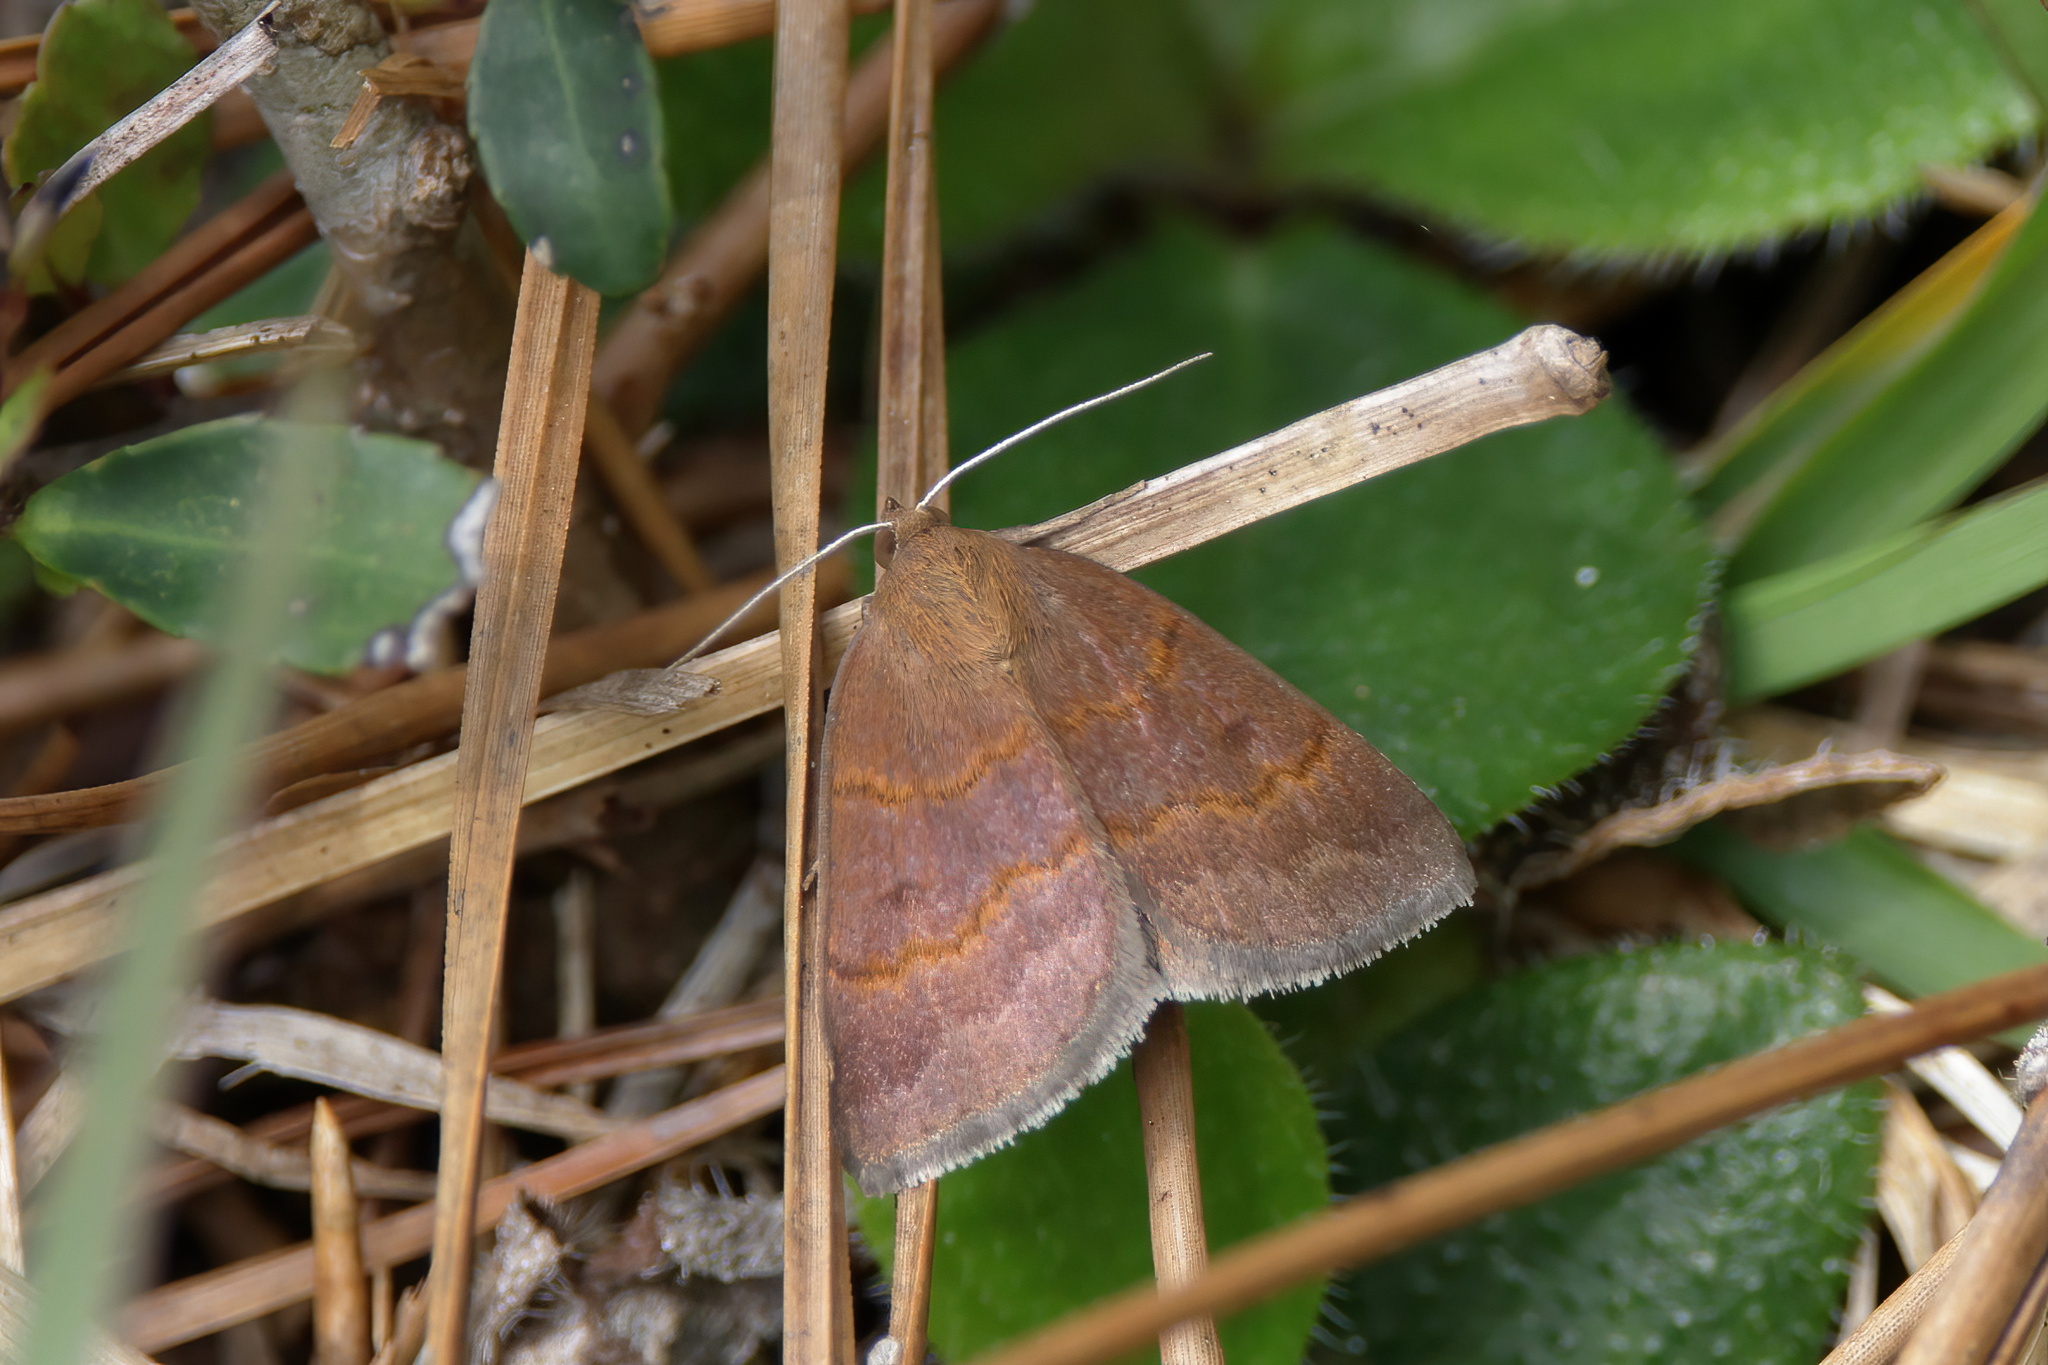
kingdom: Animalia
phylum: Arthropoda
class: Insecta
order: Lepidoptera
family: Erebidae
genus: Argyrostrotis
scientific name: Argyrostrotis deleta
